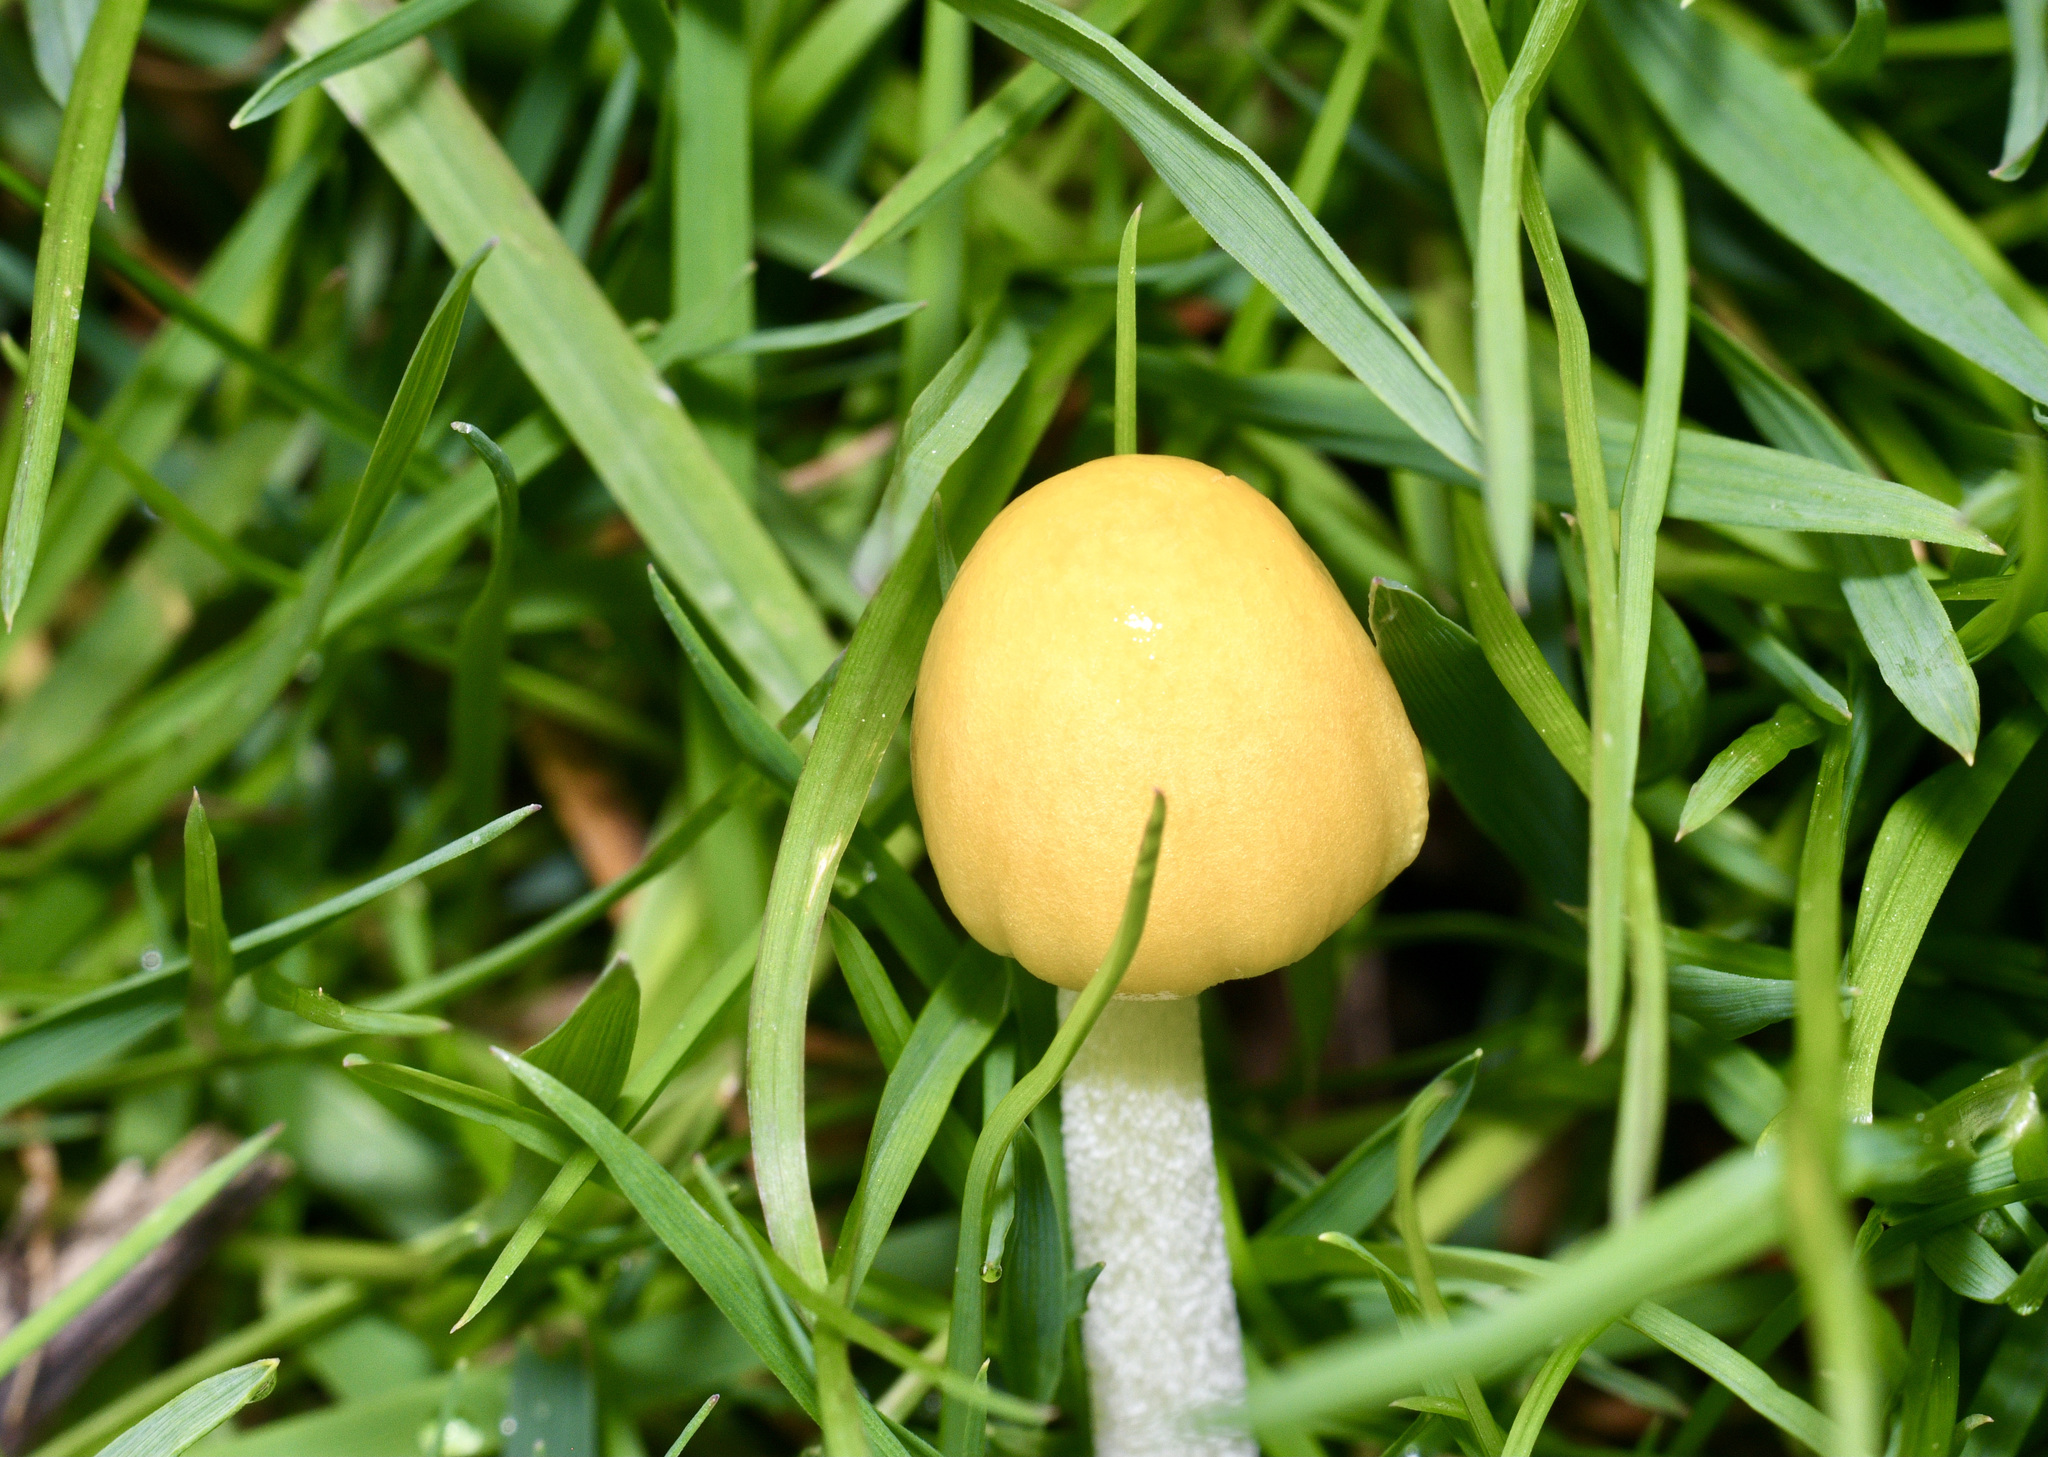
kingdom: Fungi
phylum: Basidiomycota
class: Agaricomycetes
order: Agaricales
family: Bolbitiaceae
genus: Bolbitius
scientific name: Bolbitius titubans
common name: Yellow fieldcap
